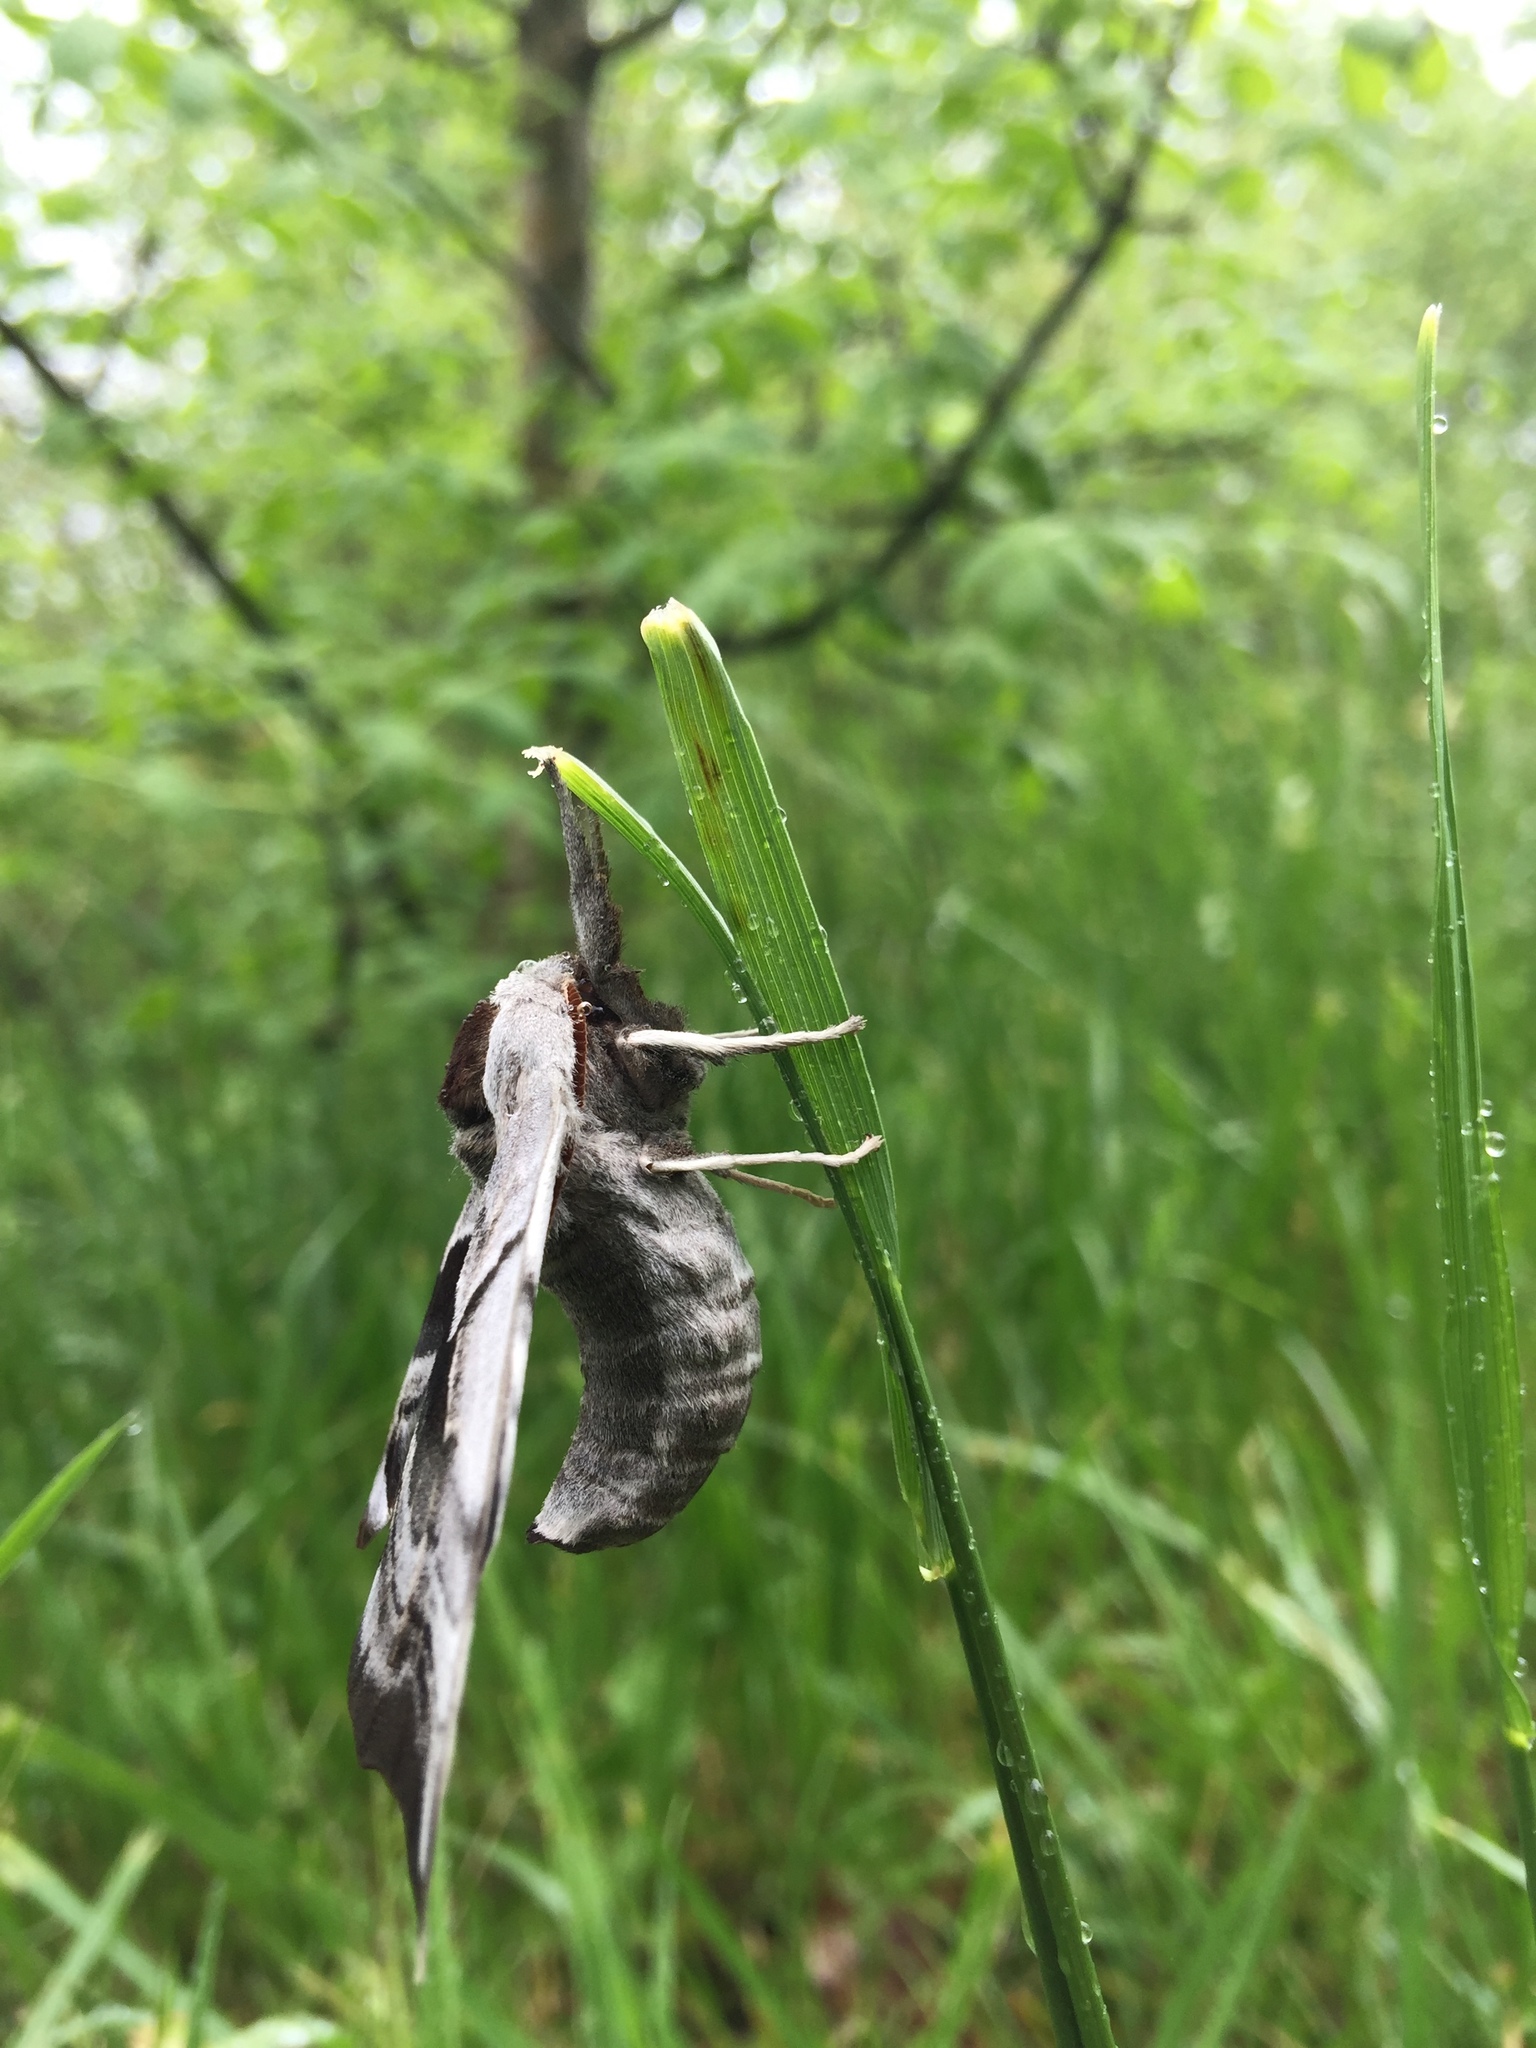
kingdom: Animalia
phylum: Arthropoda
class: Insecta
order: Lepidoptera
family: Sphingidae
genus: Smerinthus
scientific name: Smerinthus cerisyi
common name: Cerisy's sphinx moth
